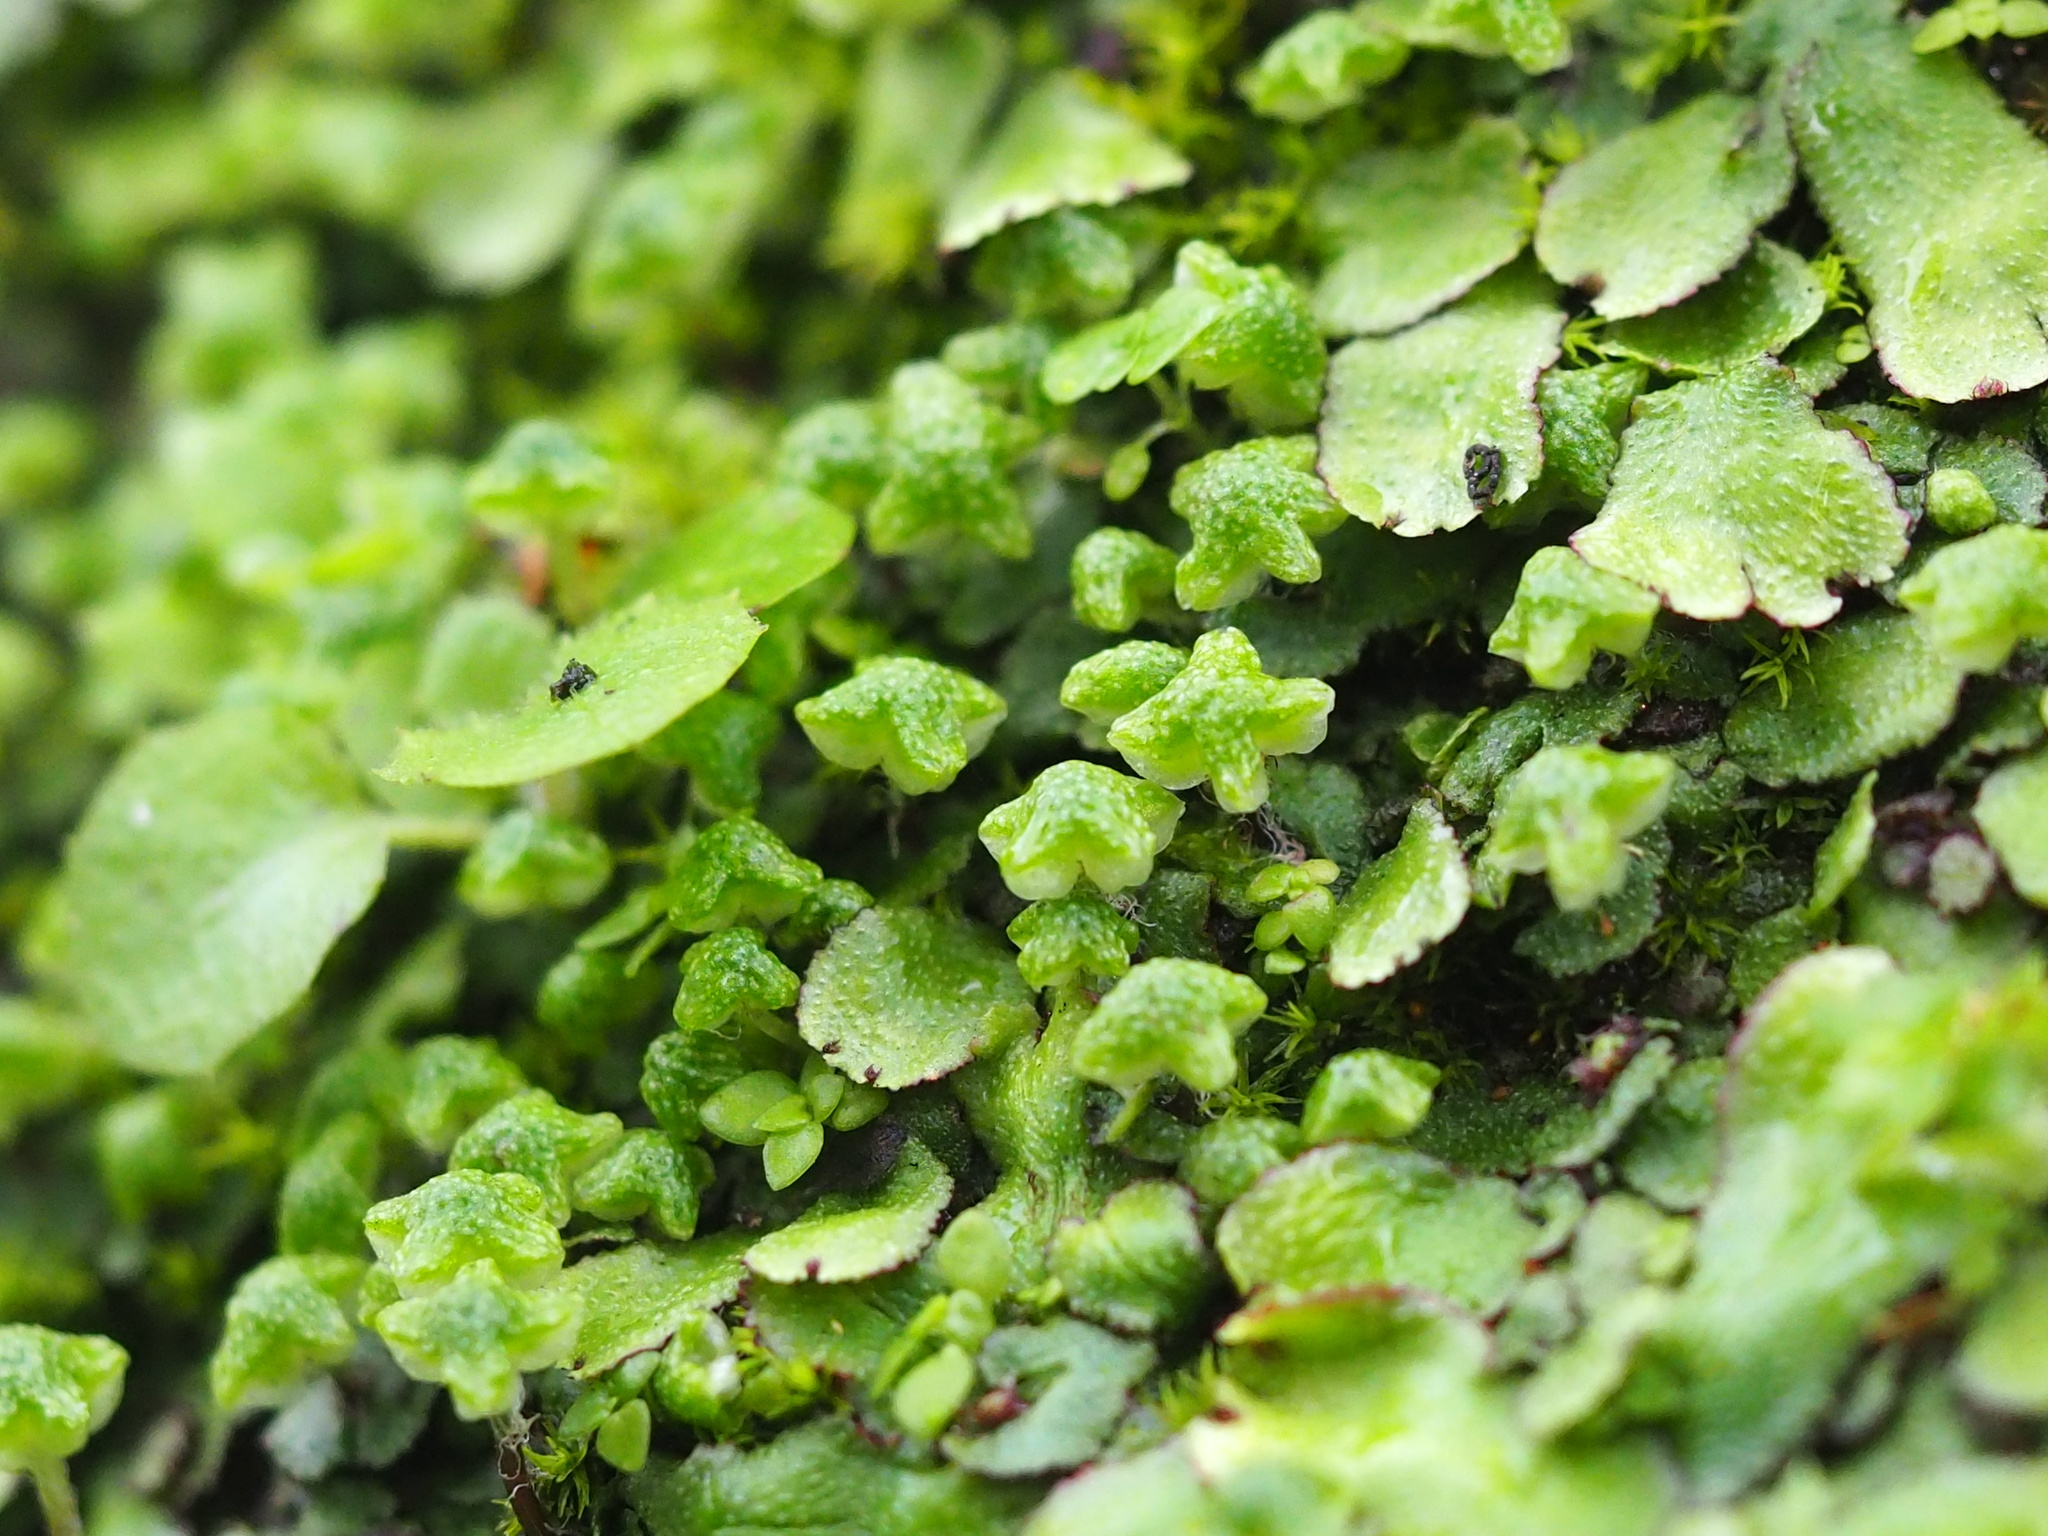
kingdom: Plantae
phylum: Marchantiophyta
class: Marchantiopsida
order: Marchantiales
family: Aytoniaceae
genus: Reboulia
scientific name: Reboulia hemisphaerica
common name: Purple-margined liverwort
